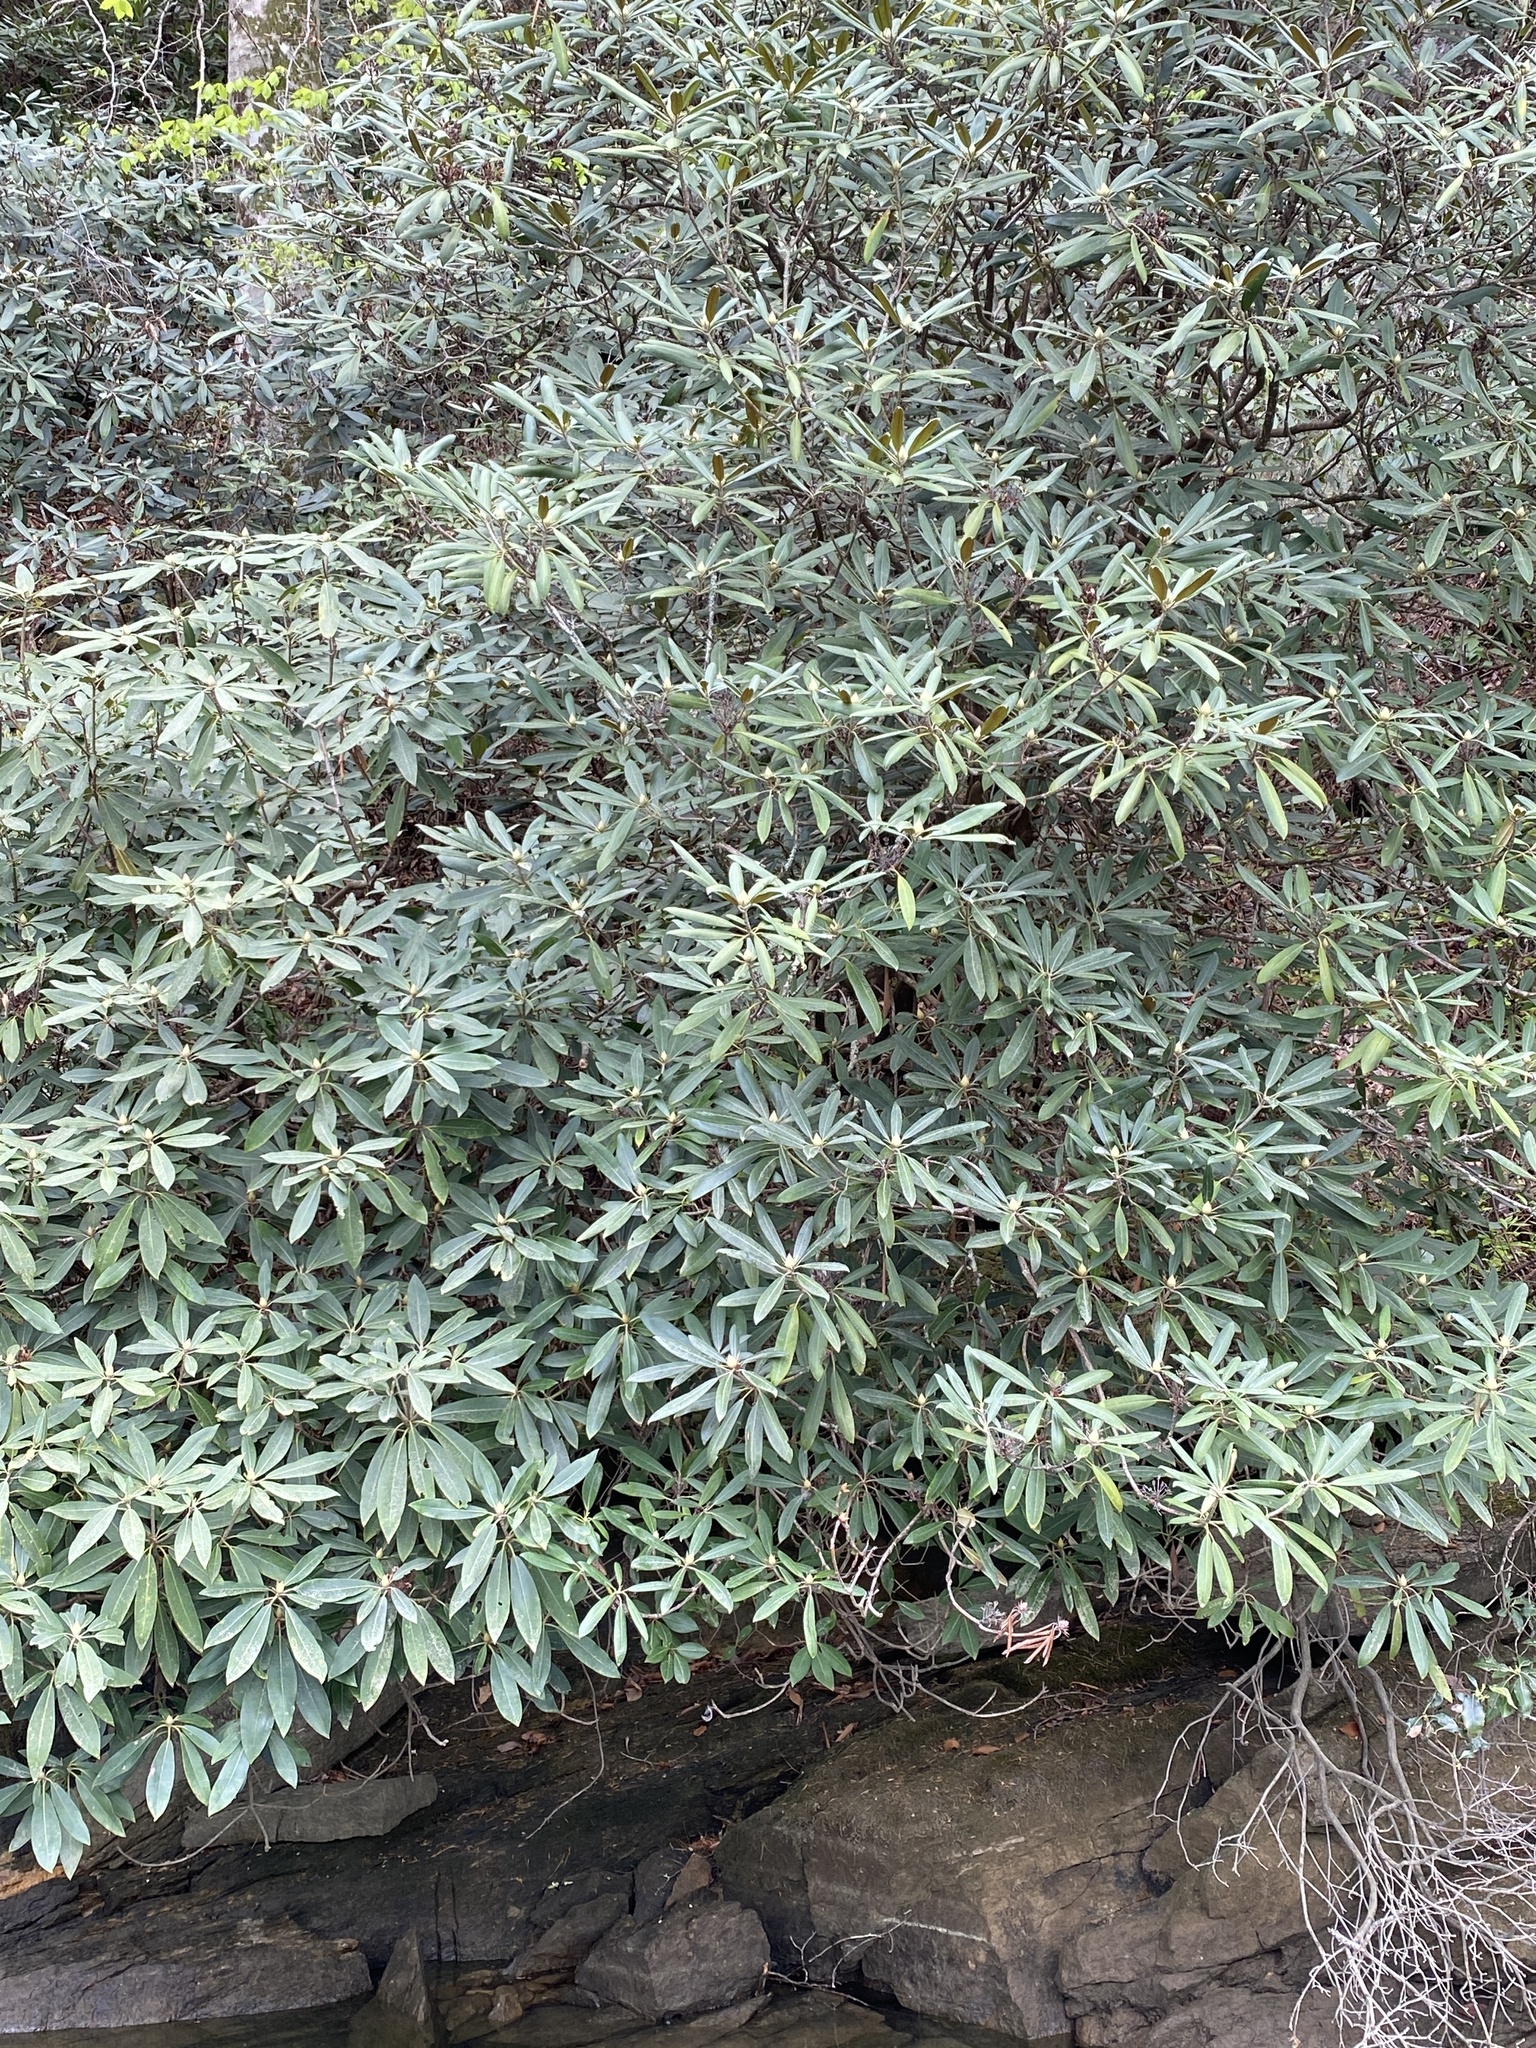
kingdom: Plantae
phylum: Tracheophyta
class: Magnoliopsida
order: Ericales
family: Ericaceae
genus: Rhododendron
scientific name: Rhododendron maximum
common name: Great rhododendron
